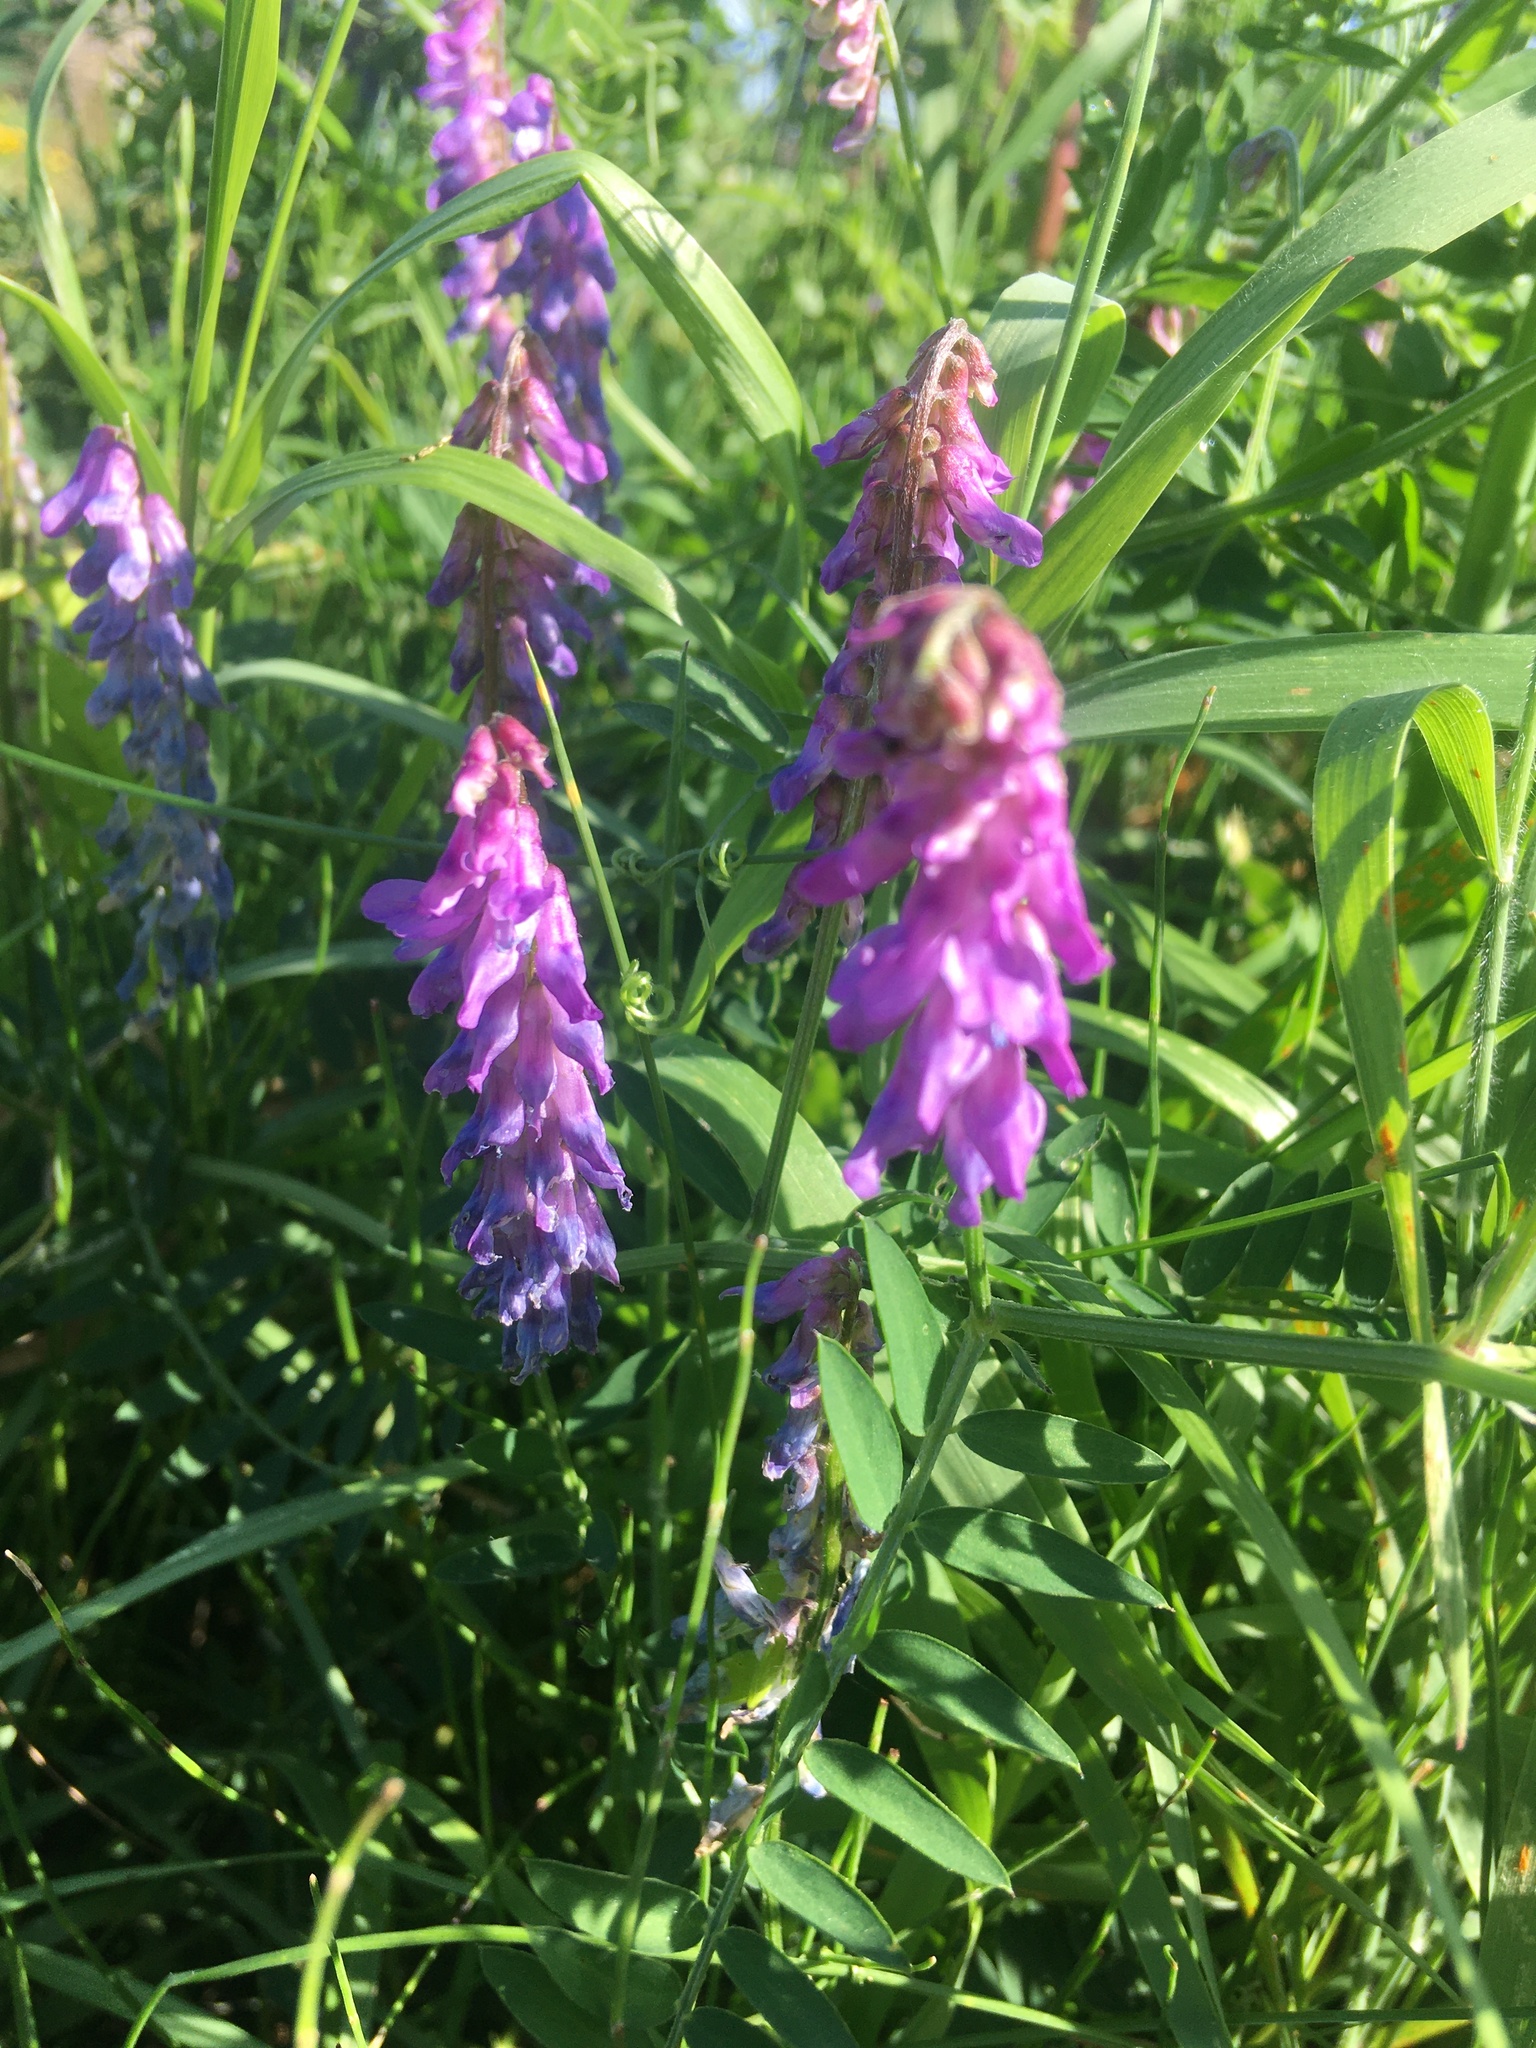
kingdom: Plantae
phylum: Tracheophyta
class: Magnoliopsida
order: Fabales
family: Fabaceae
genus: Vicia
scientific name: Vicia cracca
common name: Bird vetch
